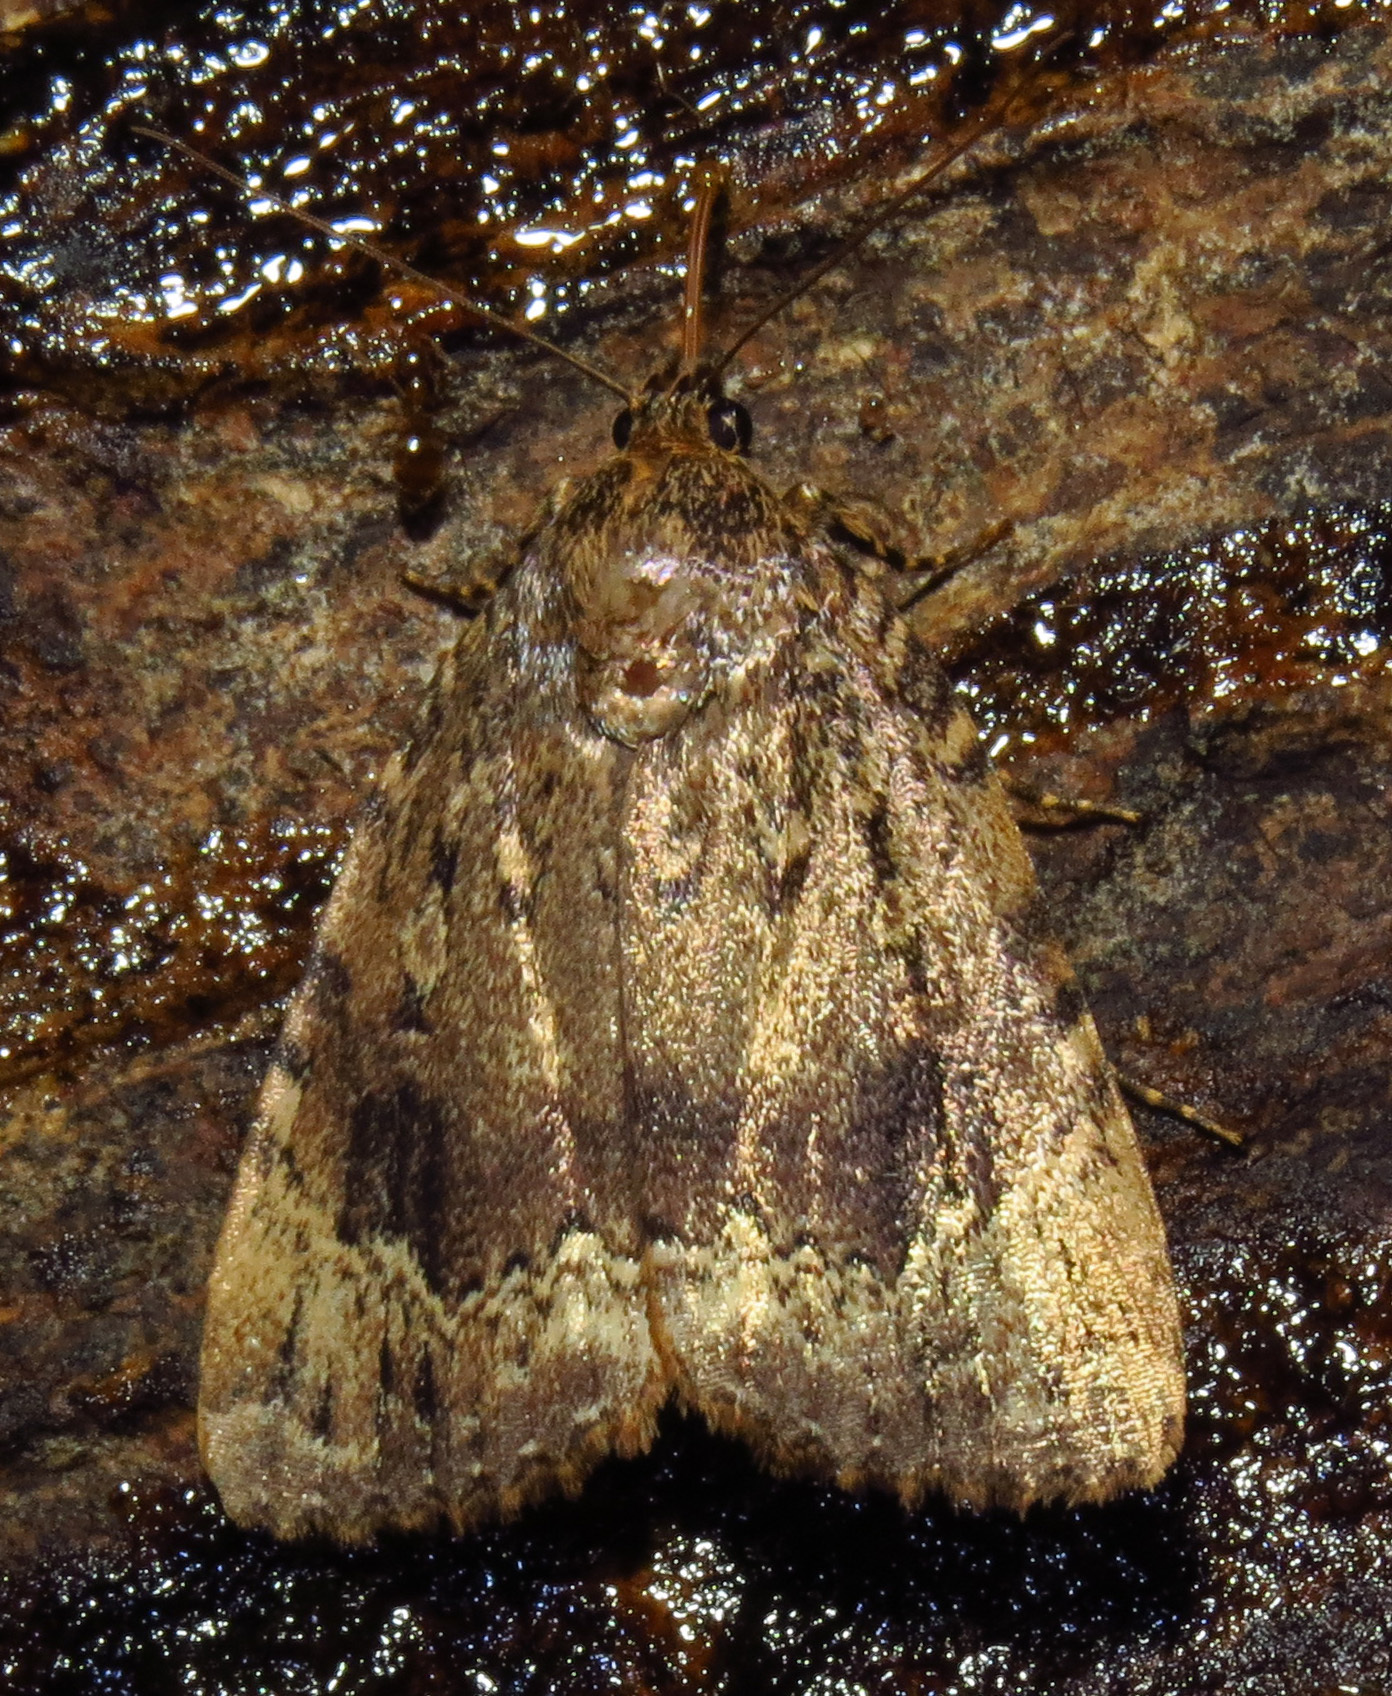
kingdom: Animalia
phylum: Arthropoda
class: Insecta
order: Lepidoptera
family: Noctuidae
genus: Amphipyra
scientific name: Amphipyra pyramidoides
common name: American copper underwing
